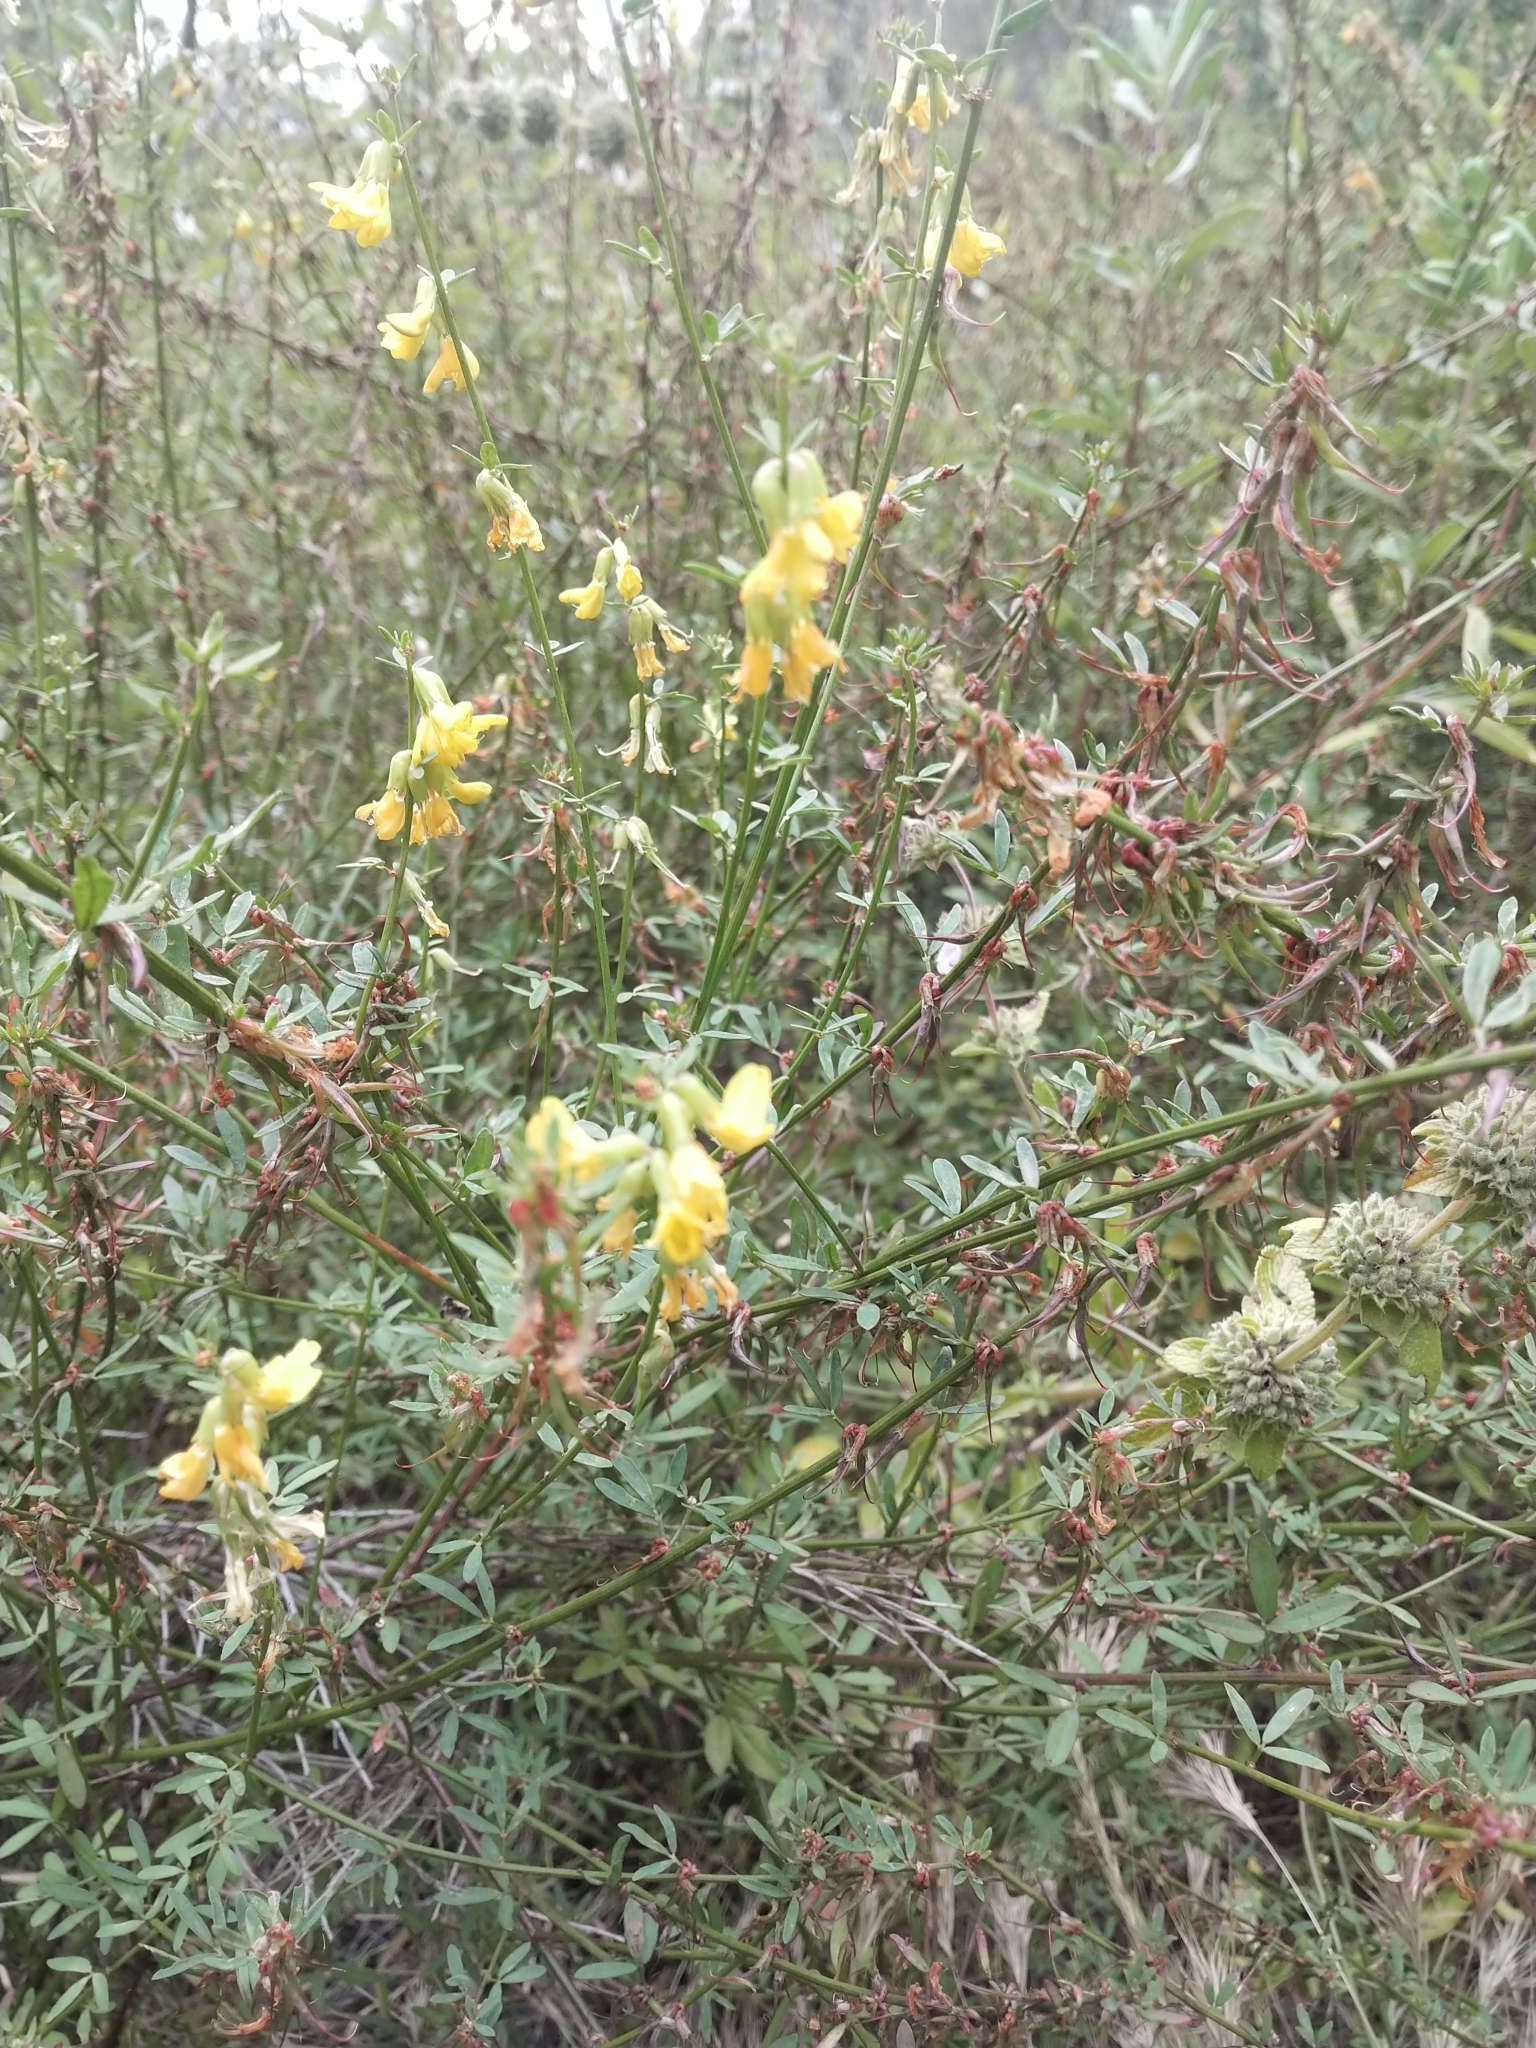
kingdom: Plantae
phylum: Tracheophyta
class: Magnoliopsida
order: Fabales
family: Fabaceae
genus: Acmispon
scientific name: Acmispon glaber
